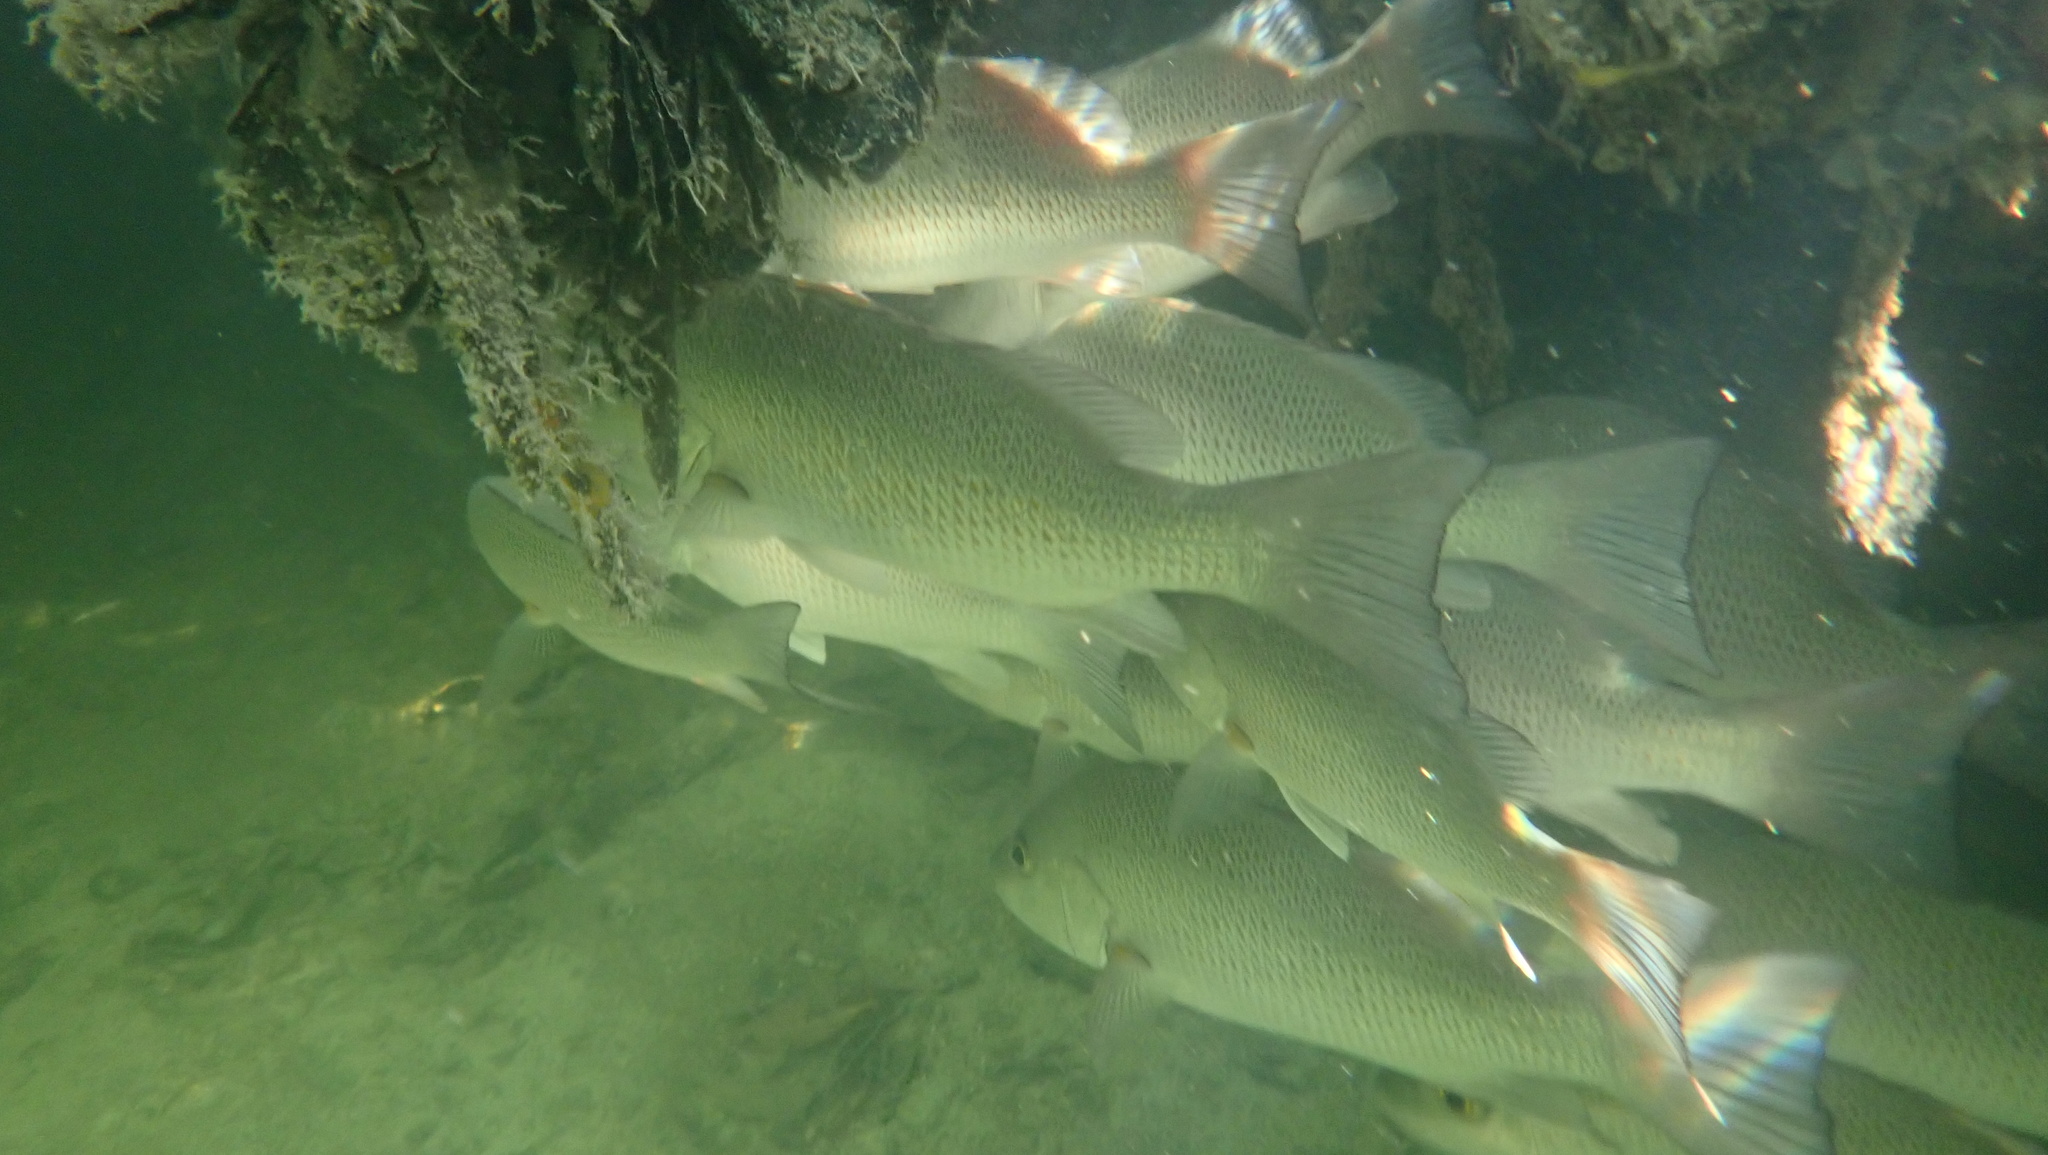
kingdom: Animalia
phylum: Chordata
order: Perciformes
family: Lutjanidae
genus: Lutjanus
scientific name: Lutjanus griseus
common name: Gray snapper
